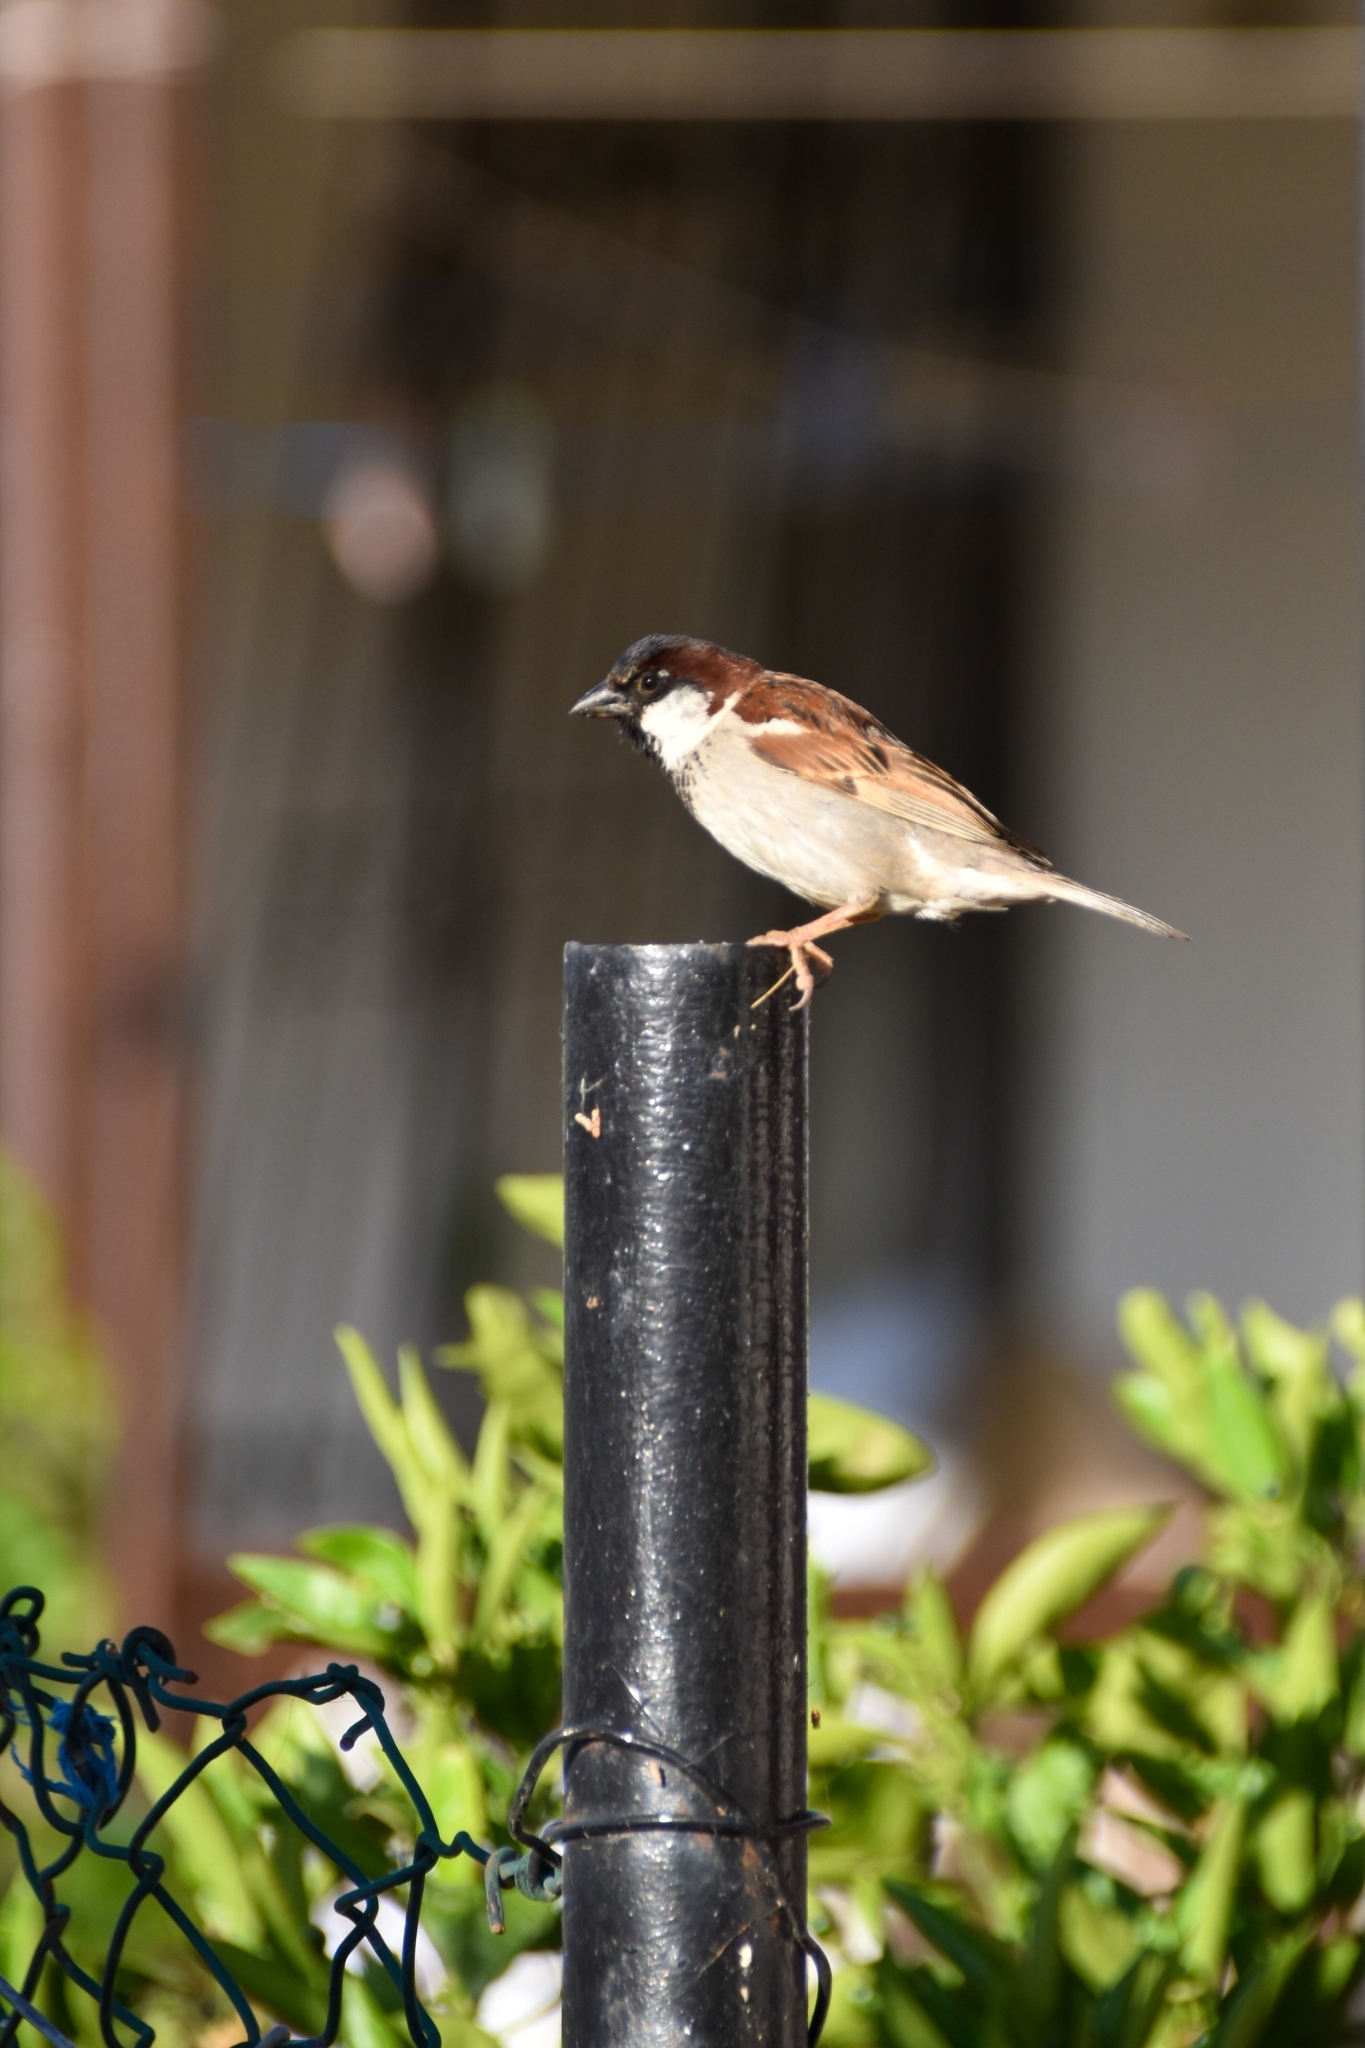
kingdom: Animalia
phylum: Chordata
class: Aves
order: Passeriformes
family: Passeridae
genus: Passer
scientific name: Passer domesticus
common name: House sparrow
